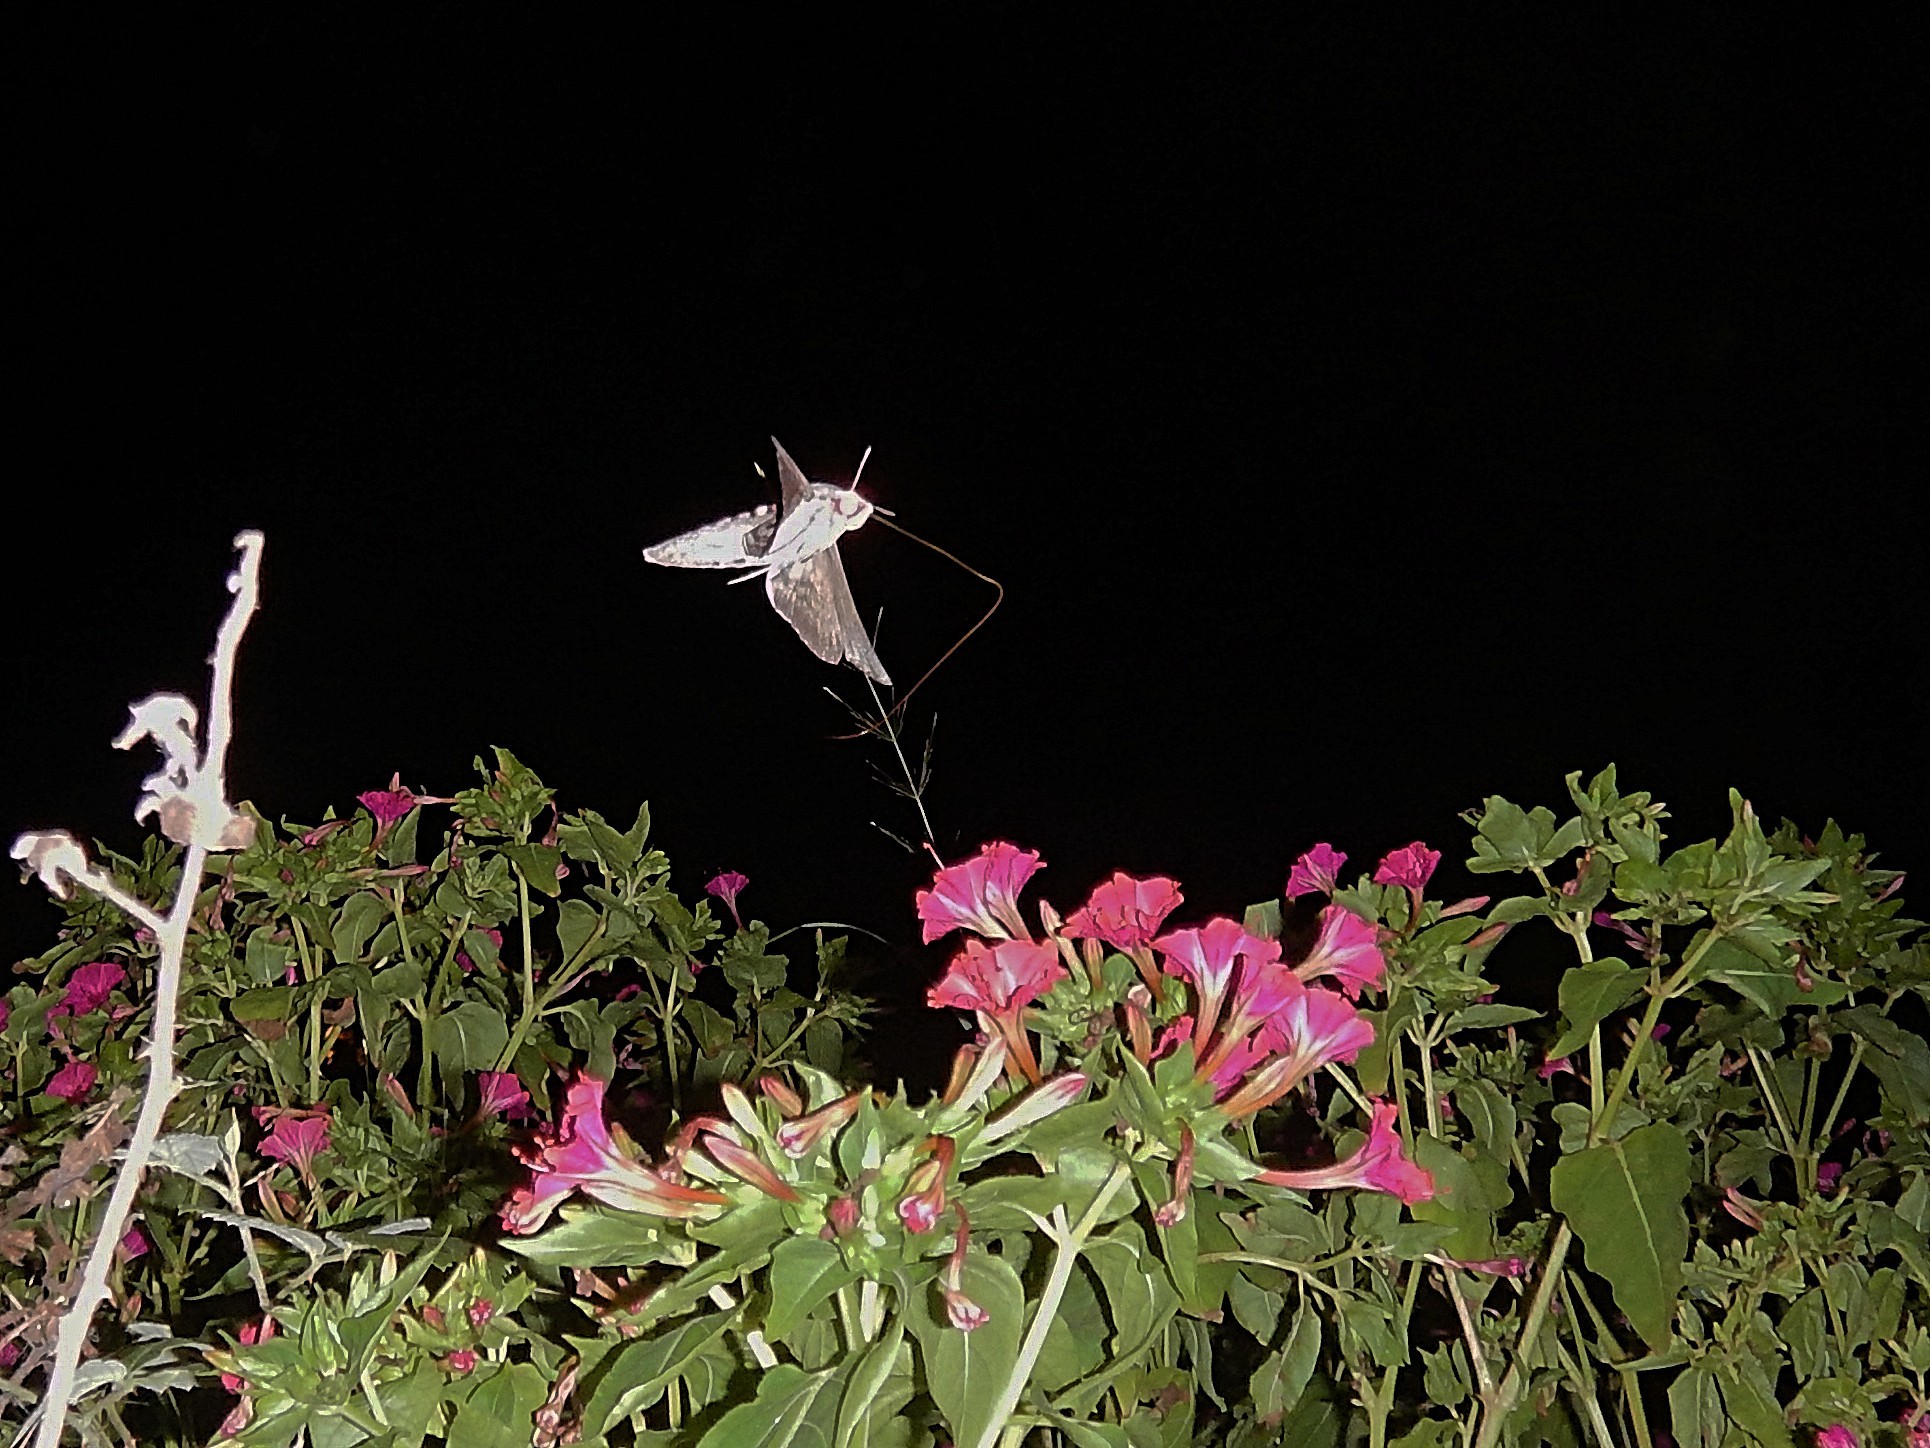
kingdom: Animalia
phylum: Arthropoda
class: Insecta
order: Lepidoptera
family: Sphingidae
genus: Macroglossum
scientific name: Macroglossum stellatarum
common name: Humming-bird hawk-moth
